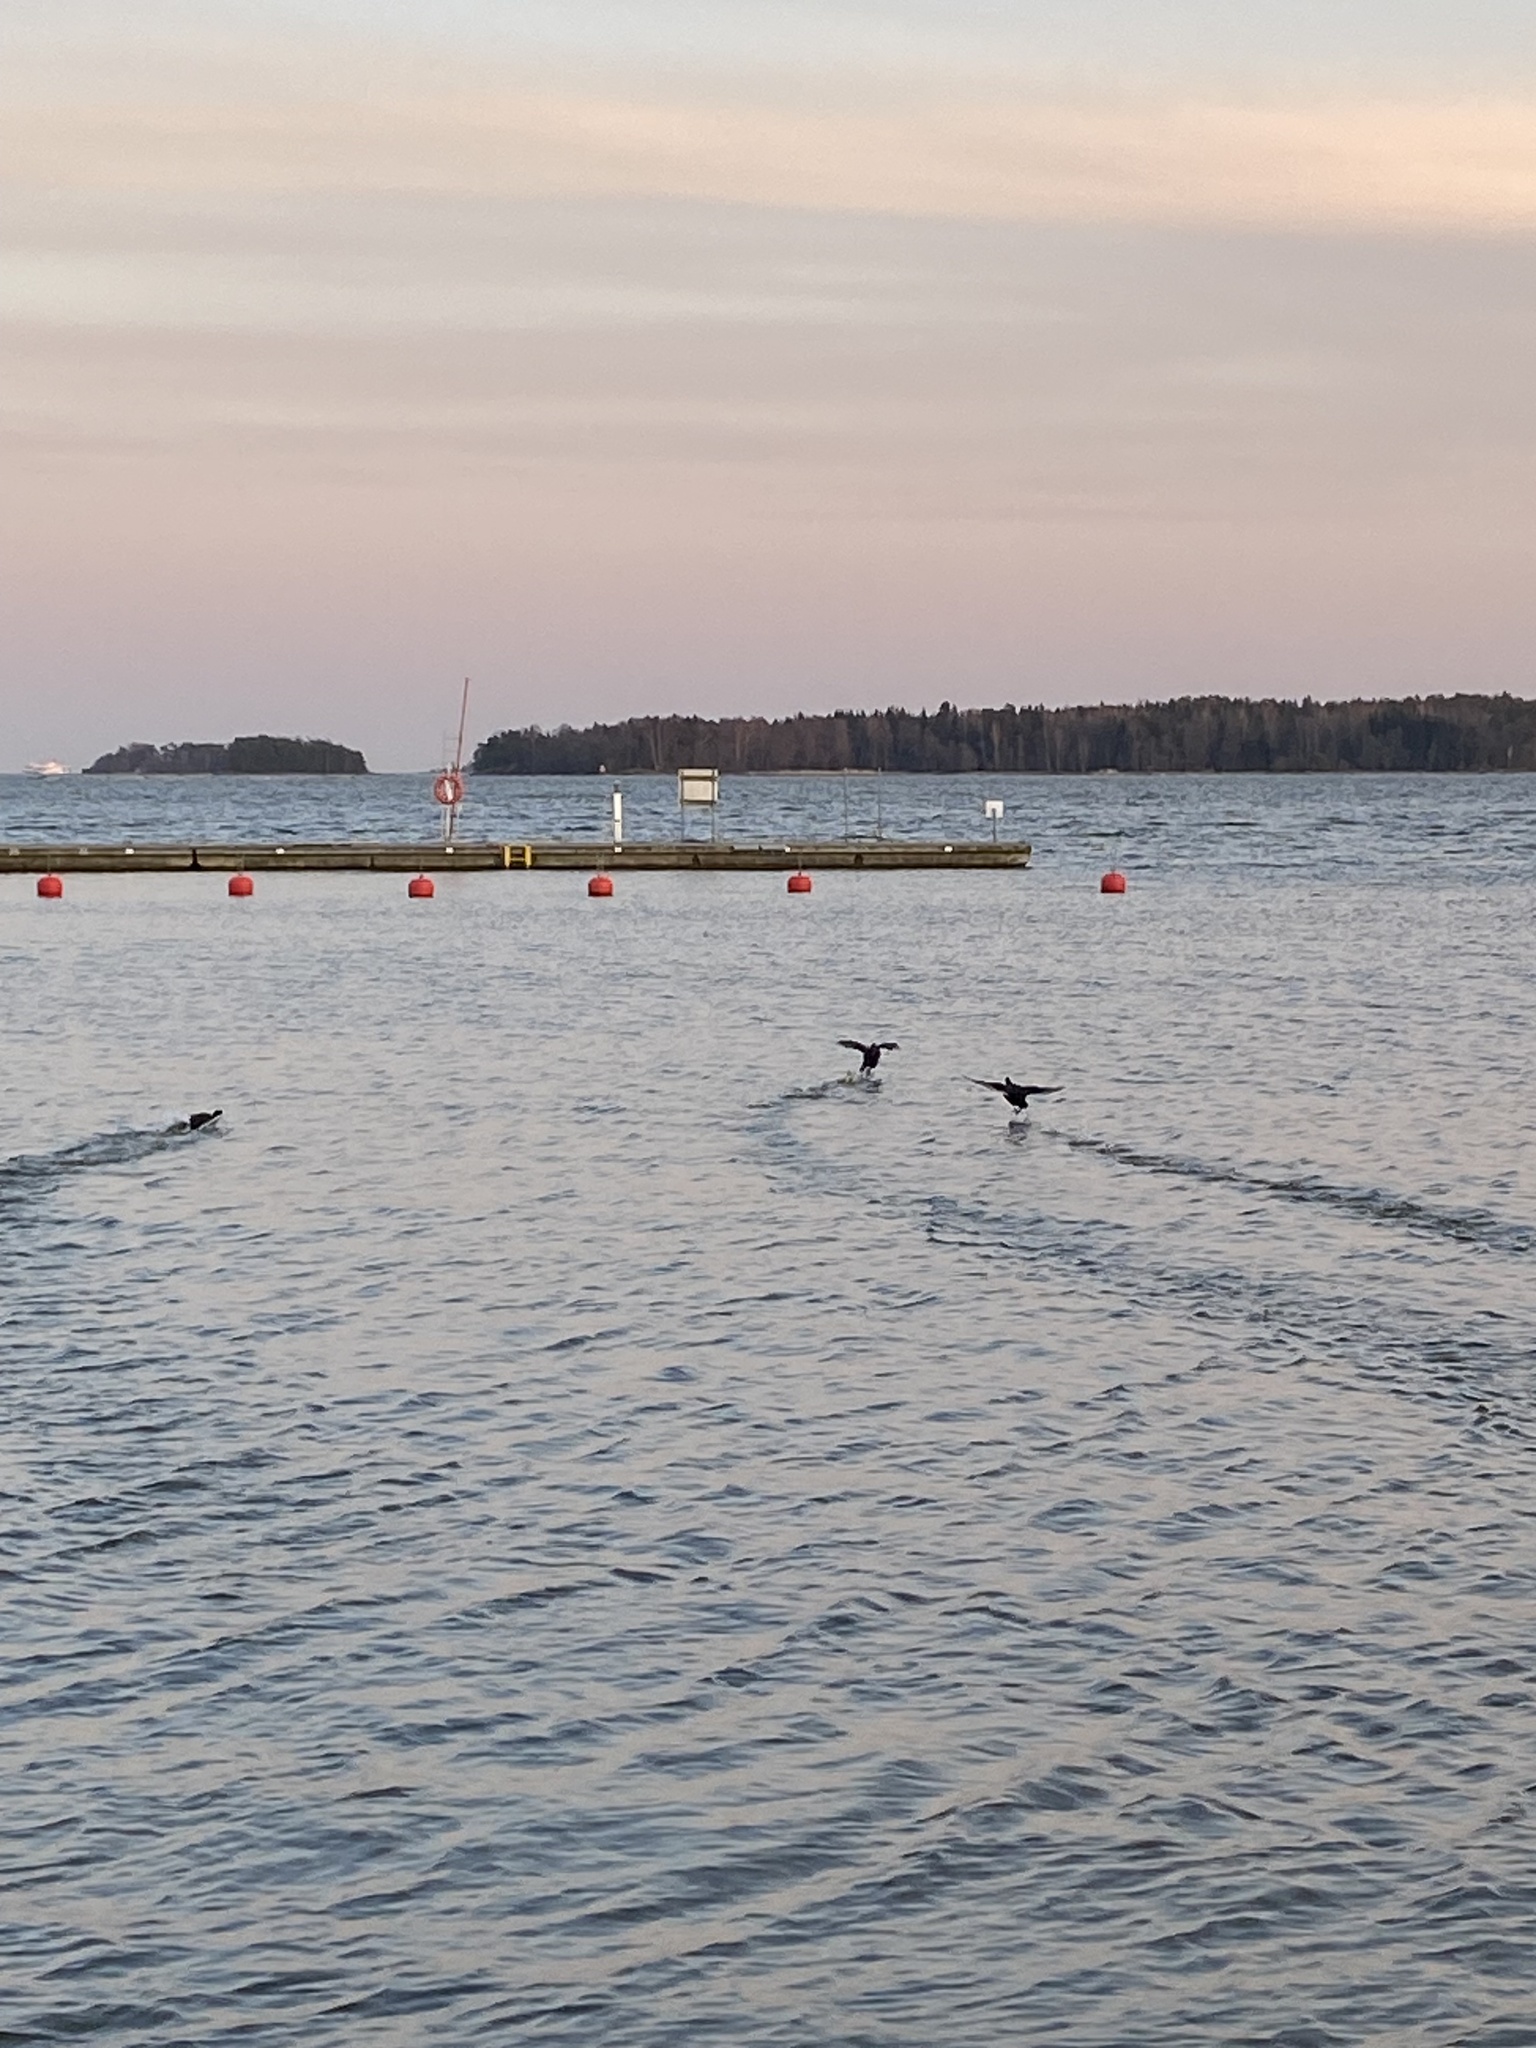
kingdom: Animalia
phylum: Chordata
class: Aves
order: Gruiformes
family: Rallidae
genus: Fulica
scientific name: Fulica atra
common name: Eurasian coot
